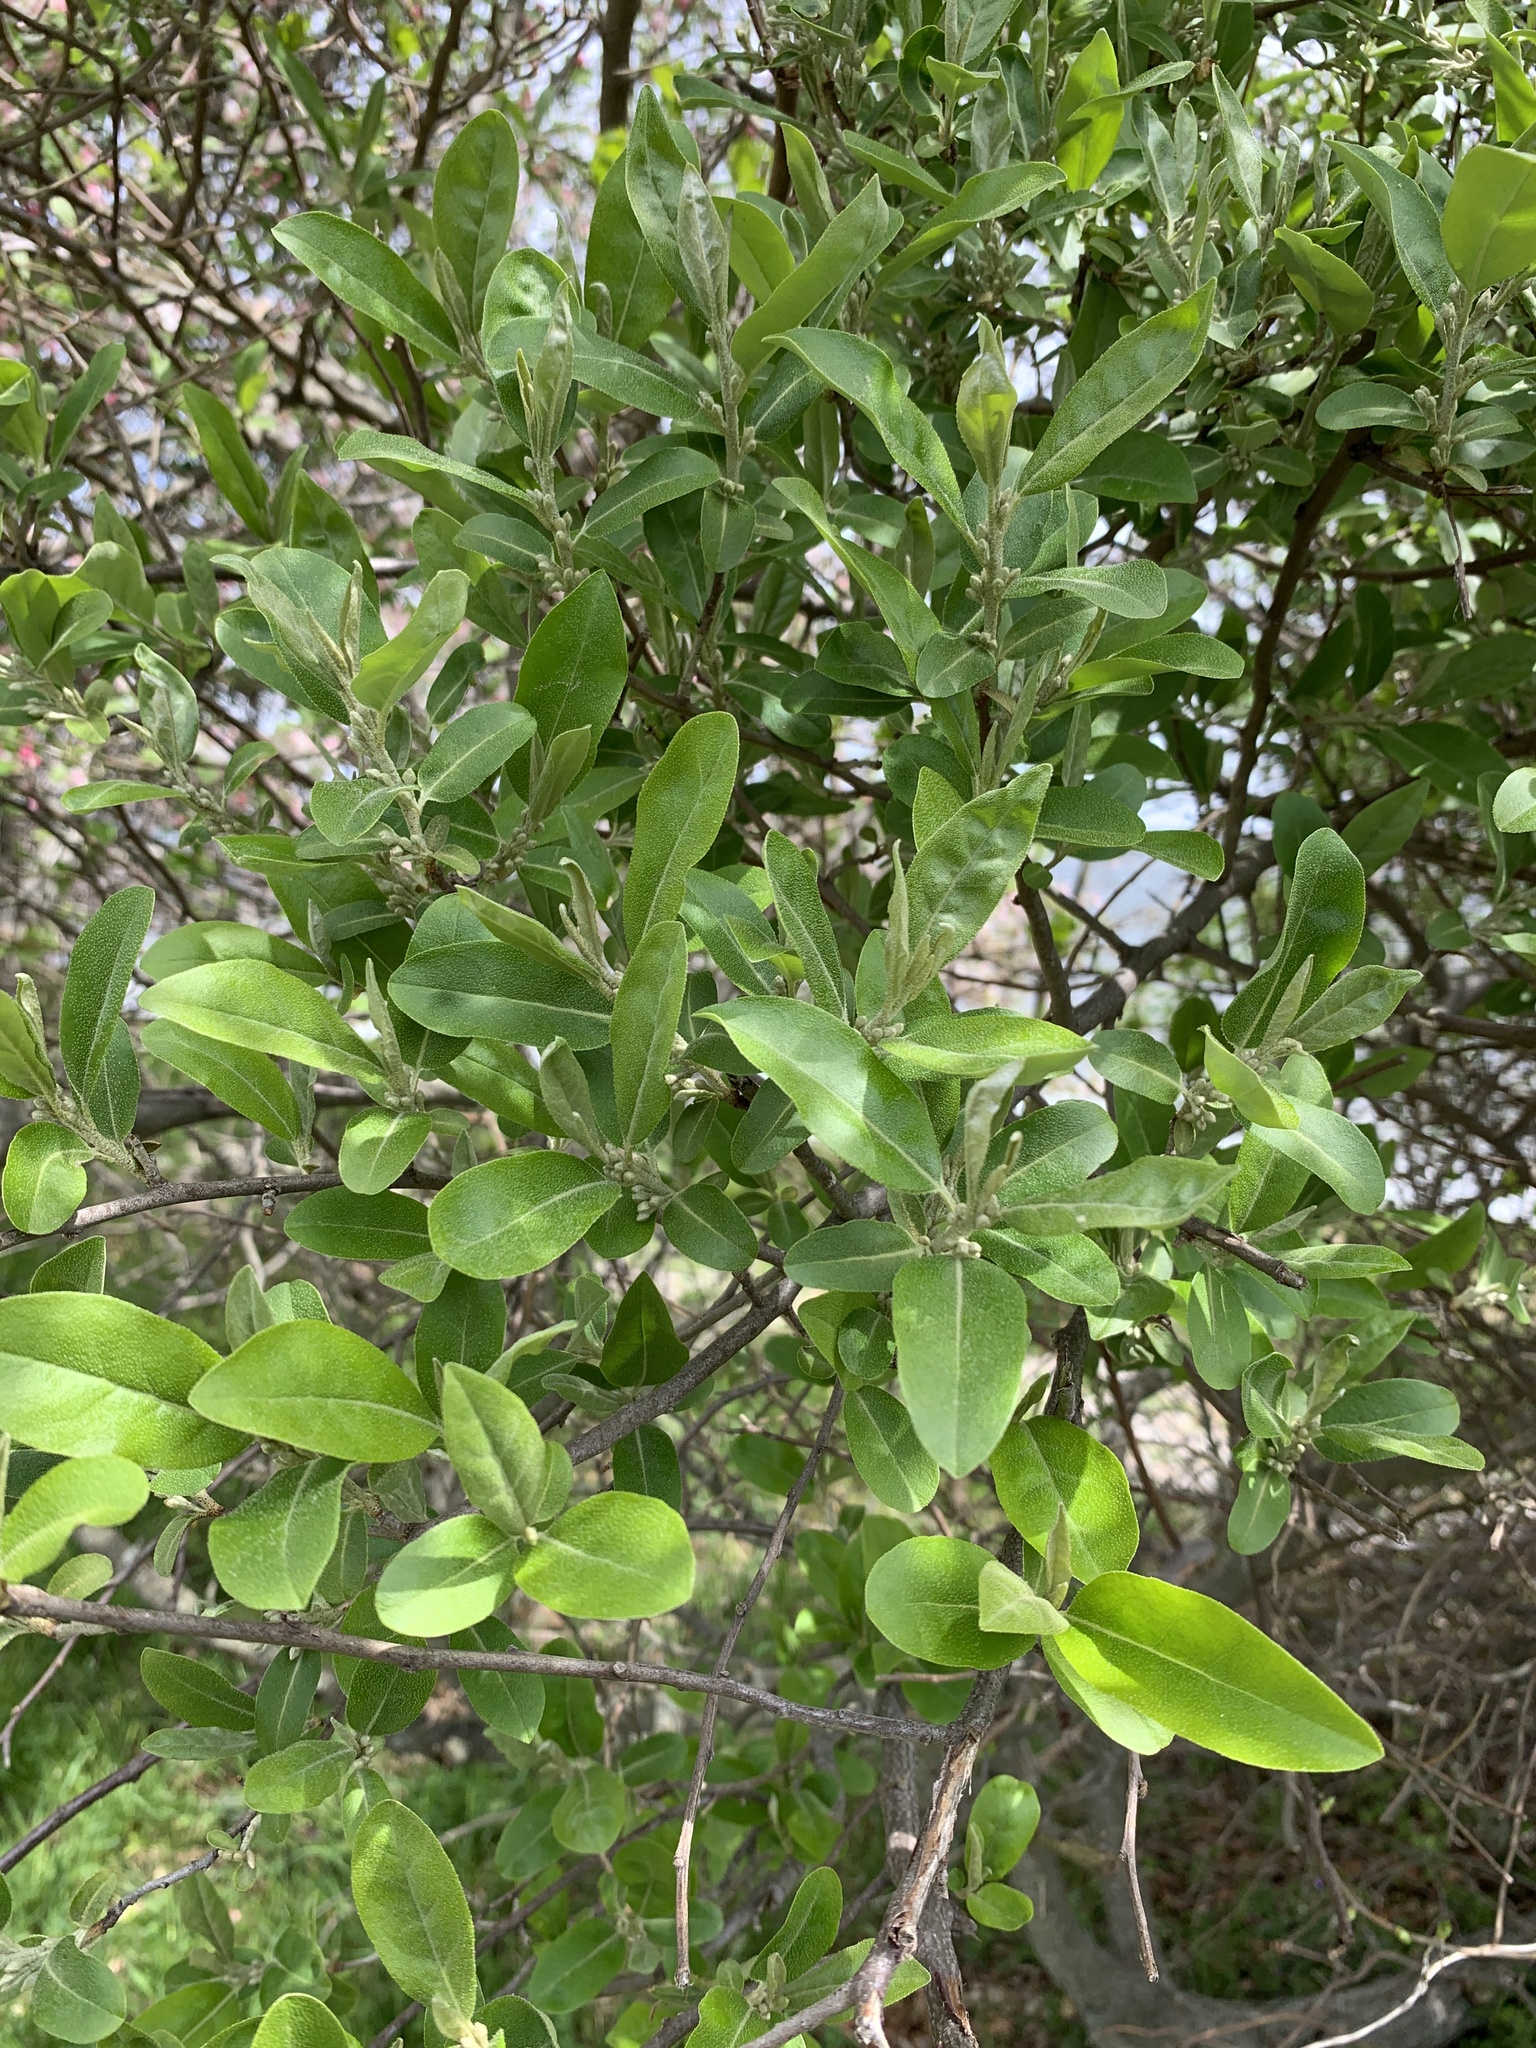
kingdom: Plantae
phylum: Tracheophyta
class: Magnoliopsida
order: Rosales
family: Elaeagnaceae
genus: Elaeagnus
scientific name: Elaeagnus umbellata
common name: Autumn olive
